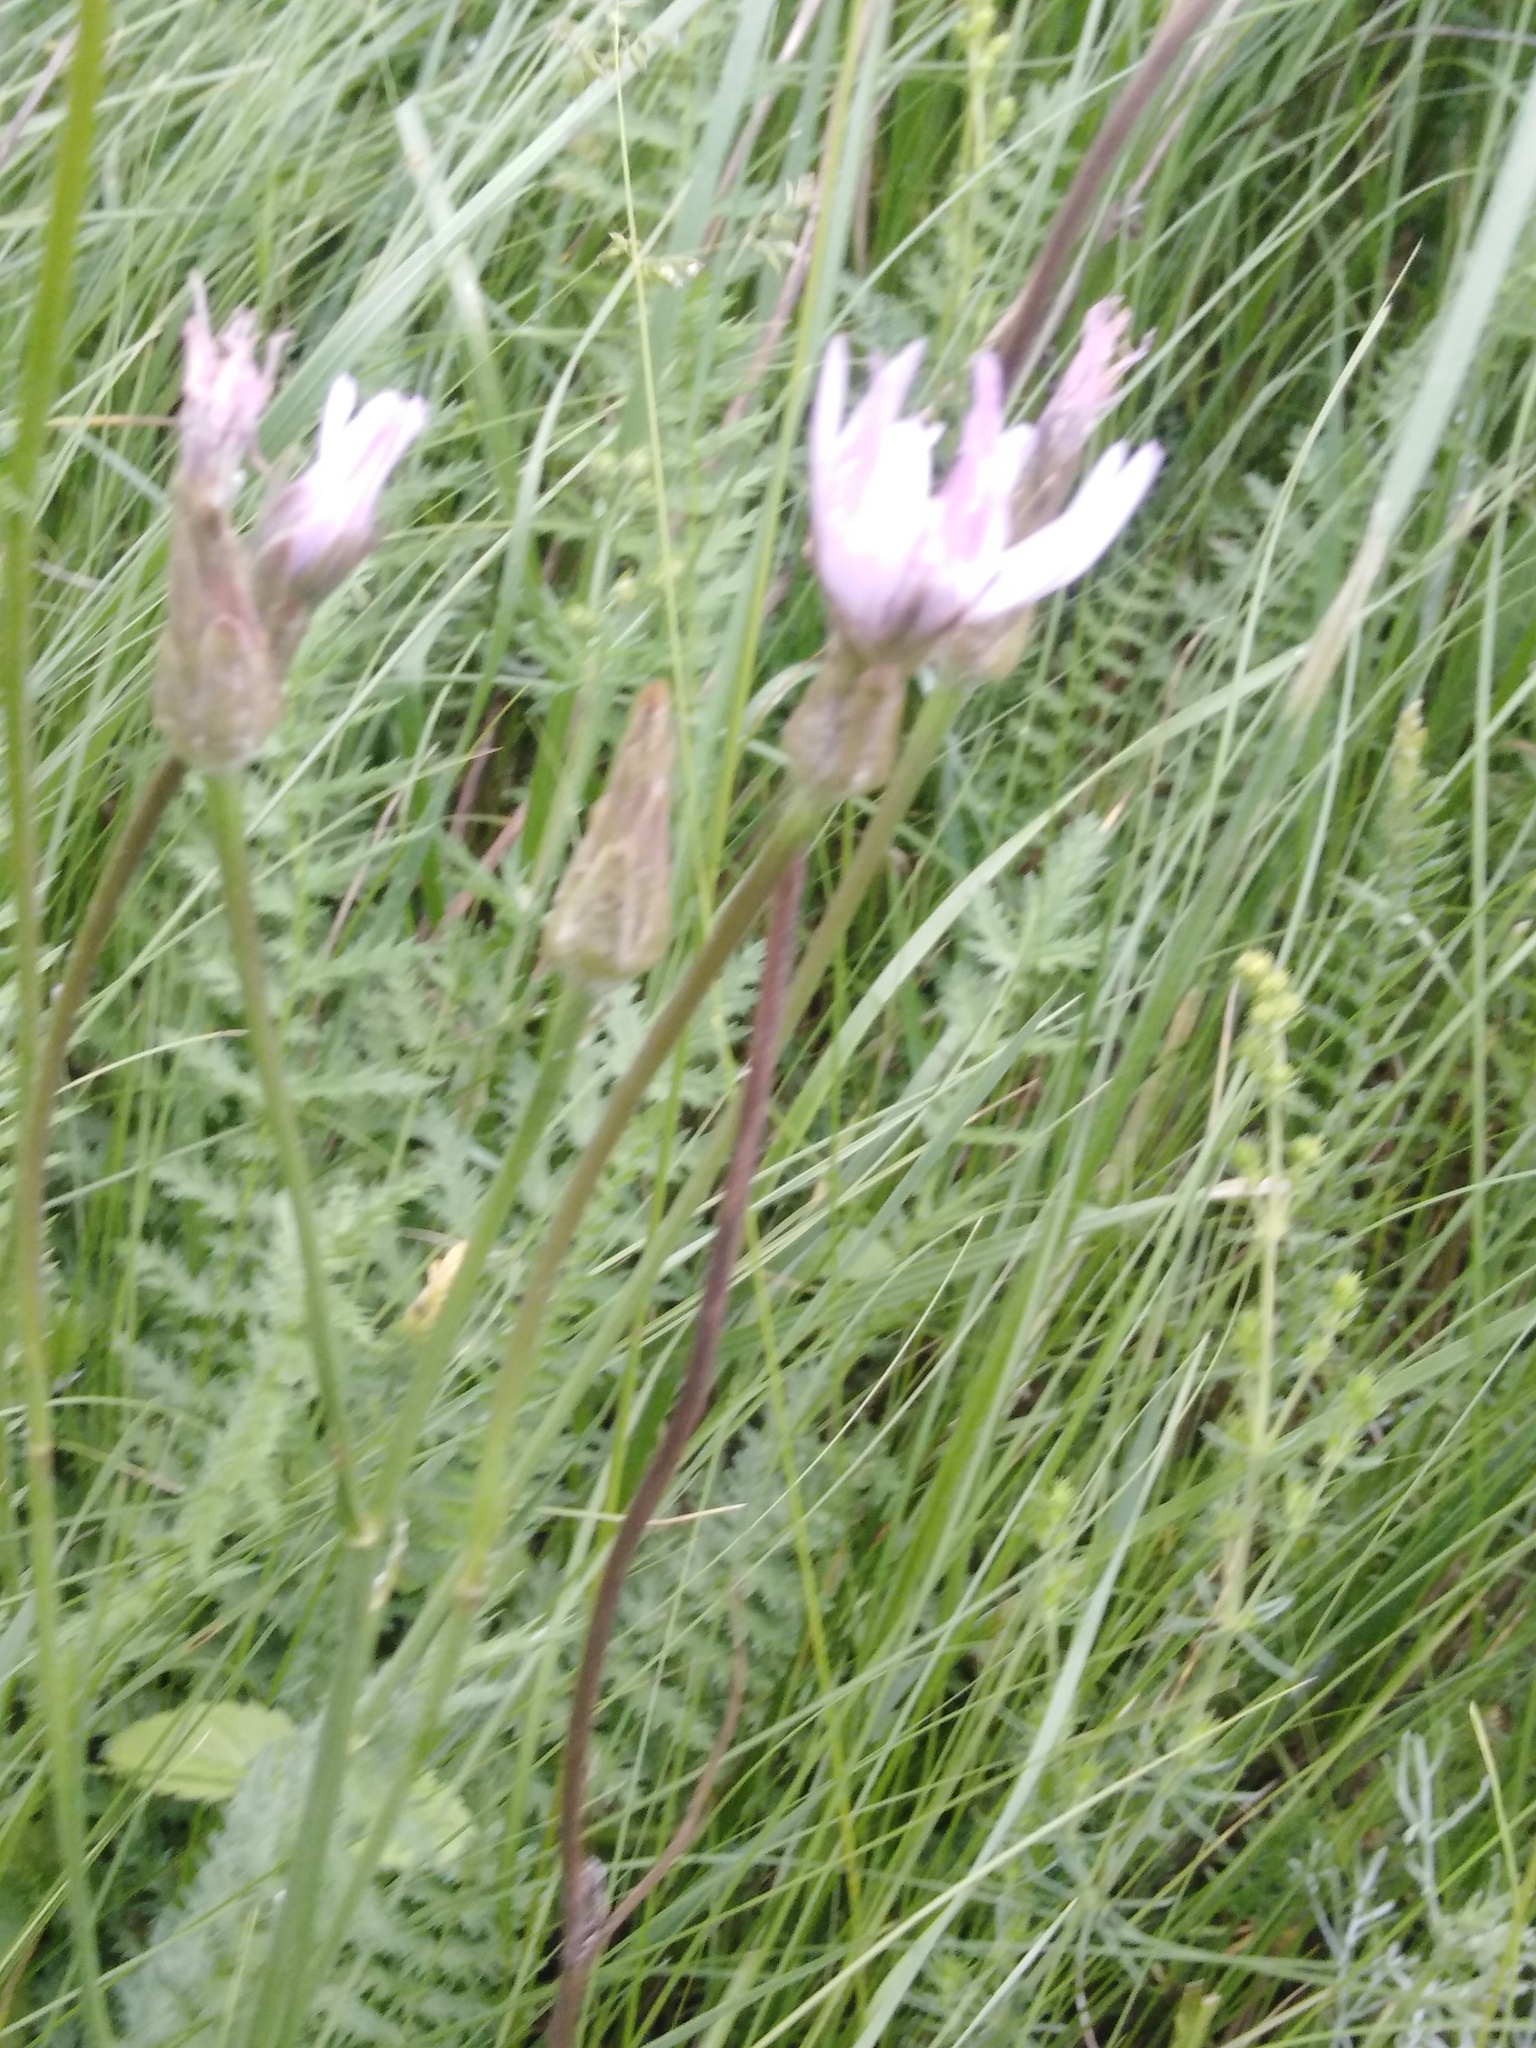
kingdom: Plantae
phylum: Tracheophyta
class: Magnoliopsida
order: Asterales
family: Asteraceae
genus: Scorzonera
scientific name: Scorzonera purpurea
